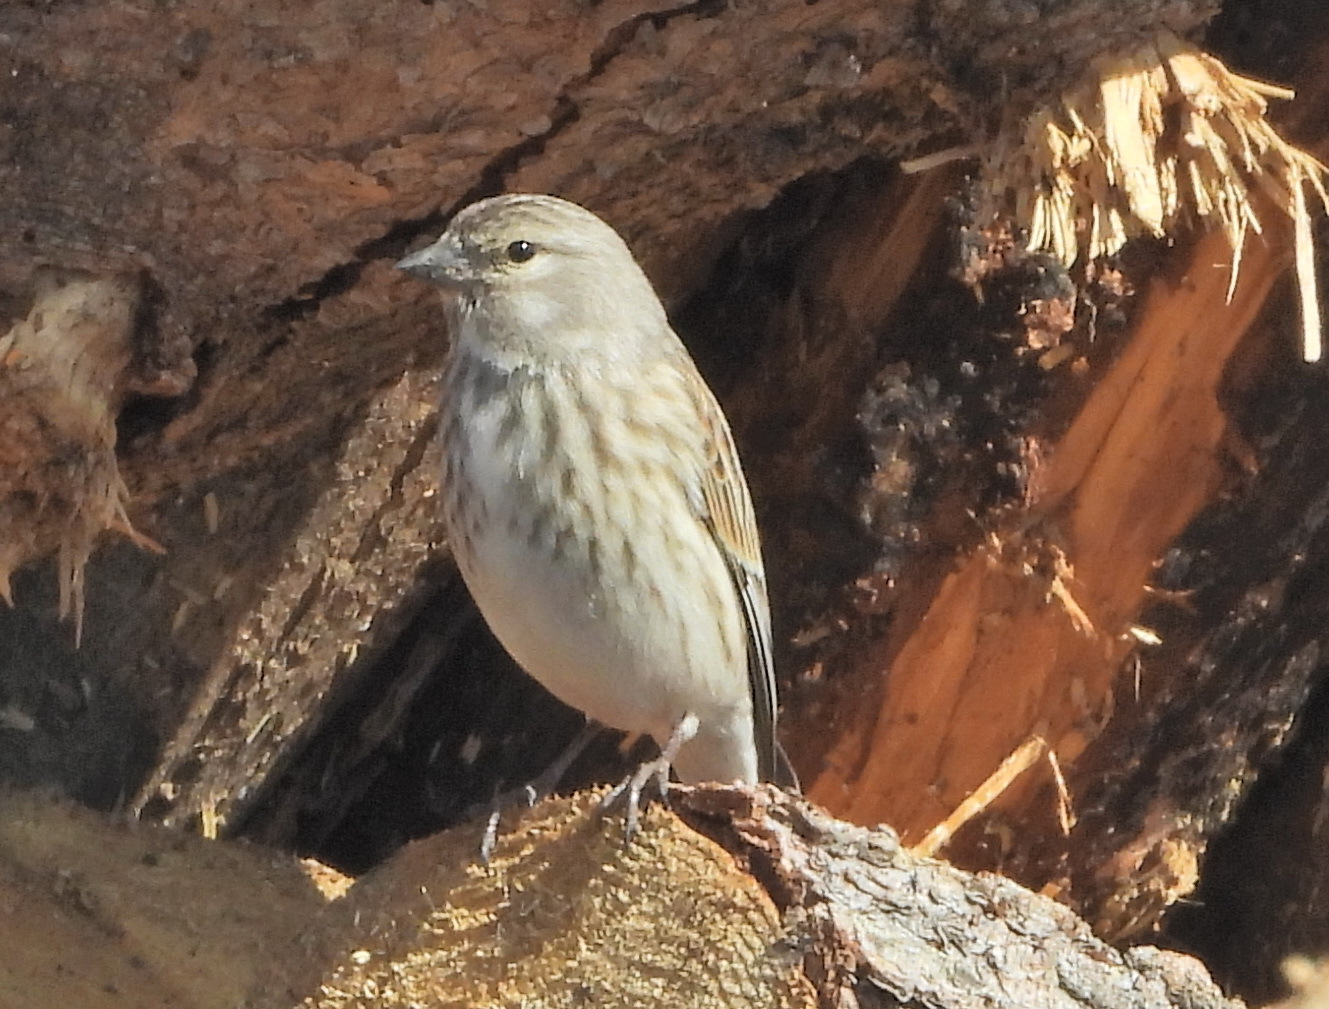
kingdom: Animalia
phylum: Chordata
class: Aves
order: Passeriformes
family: Fringillidae
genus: Linaria
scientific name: Linaria cannabina
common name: Common linnet
